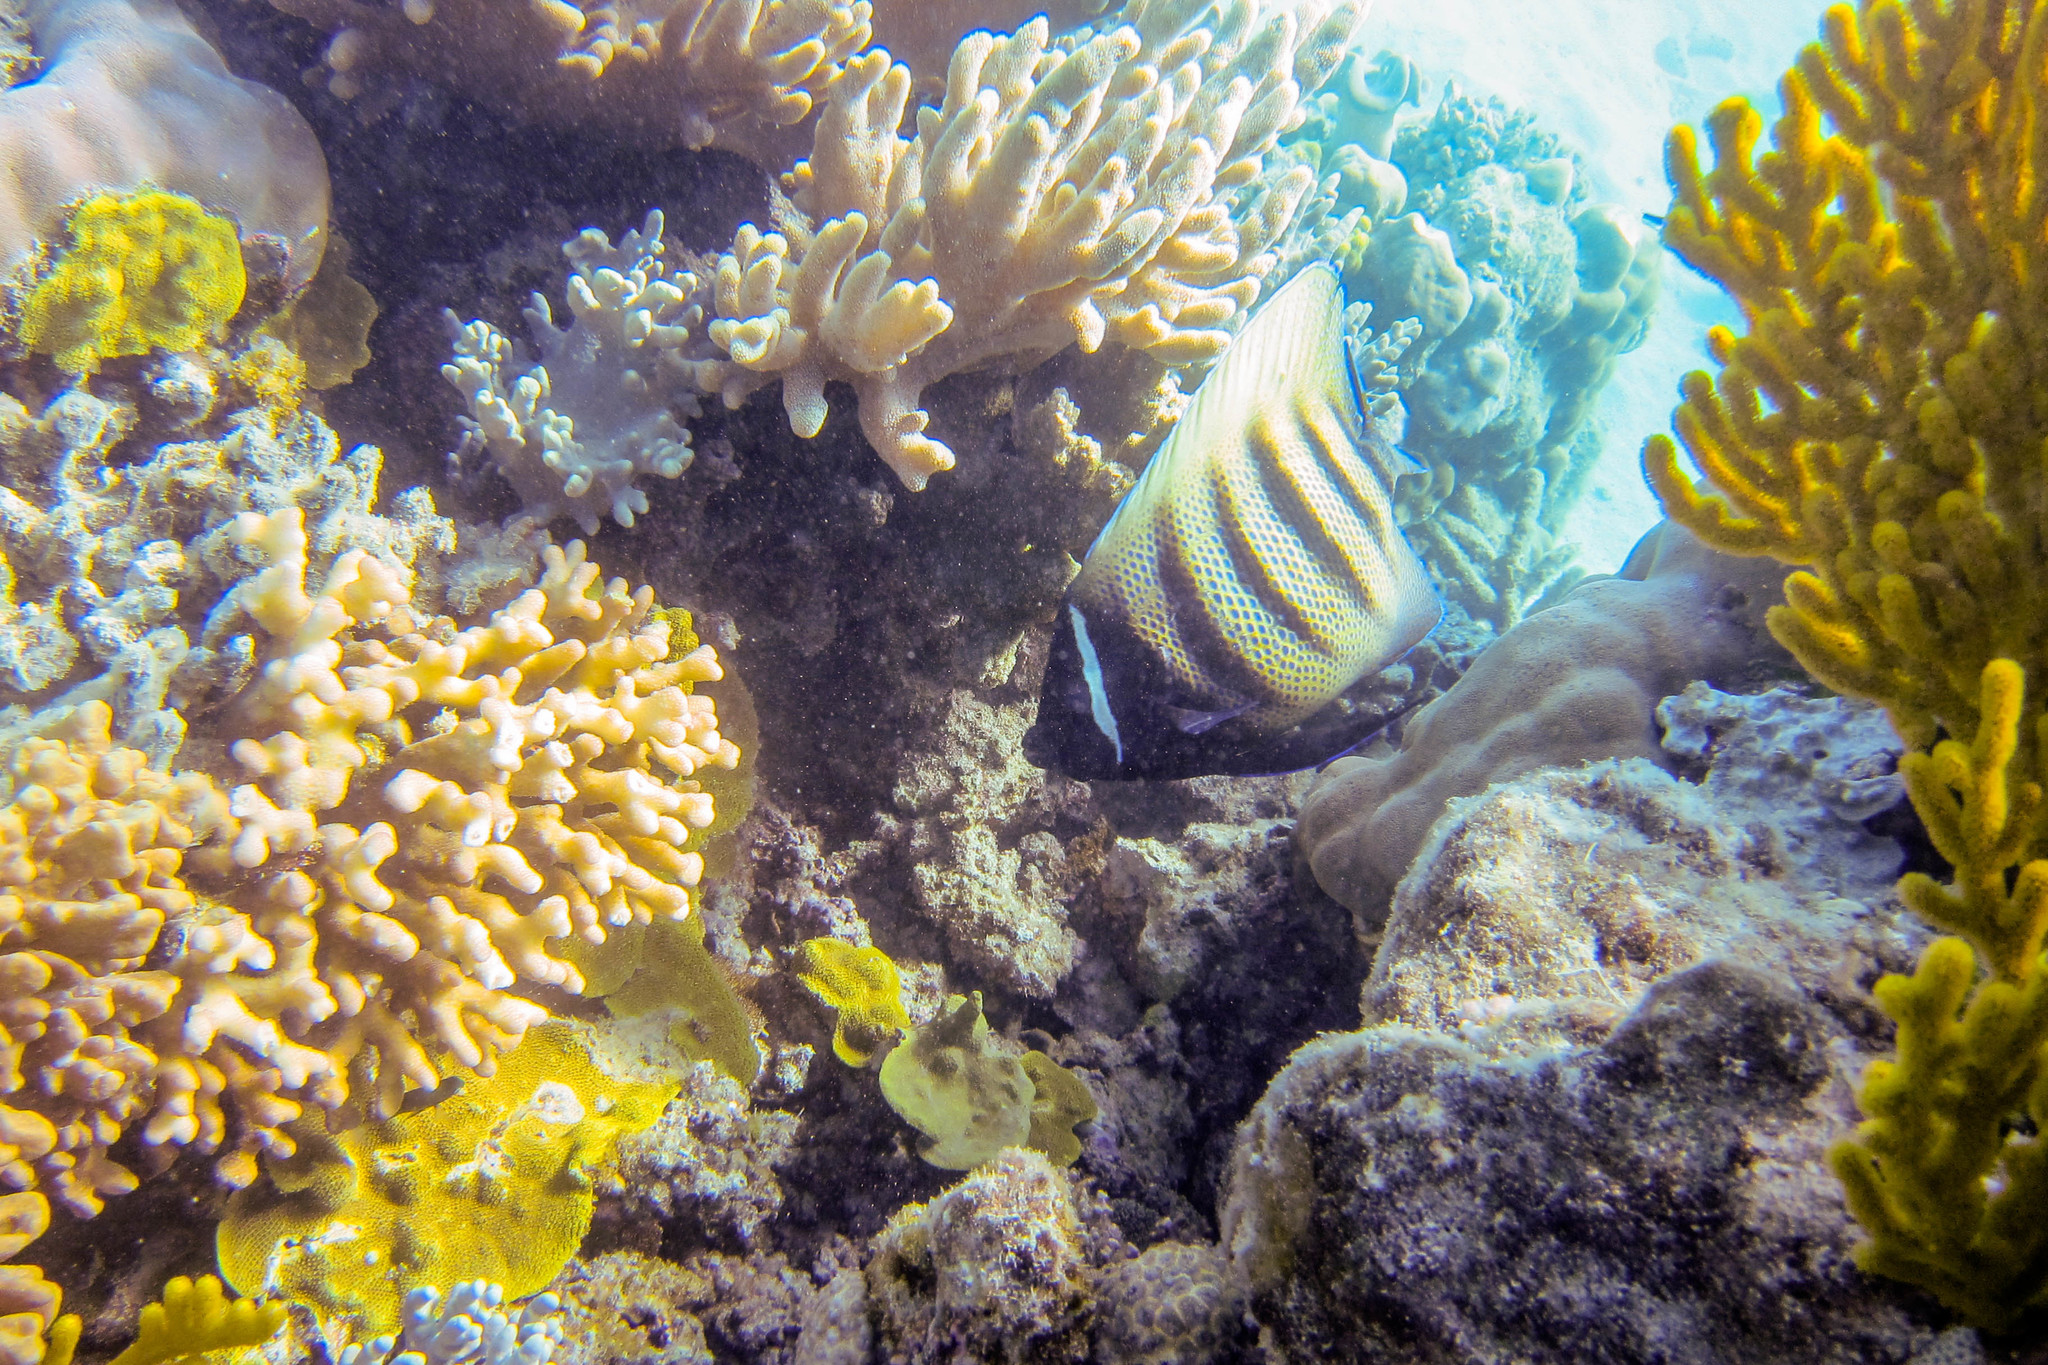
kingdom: Animalia
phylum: Chordata
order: Perciformes
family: Pomacanthidae
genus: Pomacanthus
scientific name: Pomacanthus sexstriatus
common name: Six-banded angelfish
